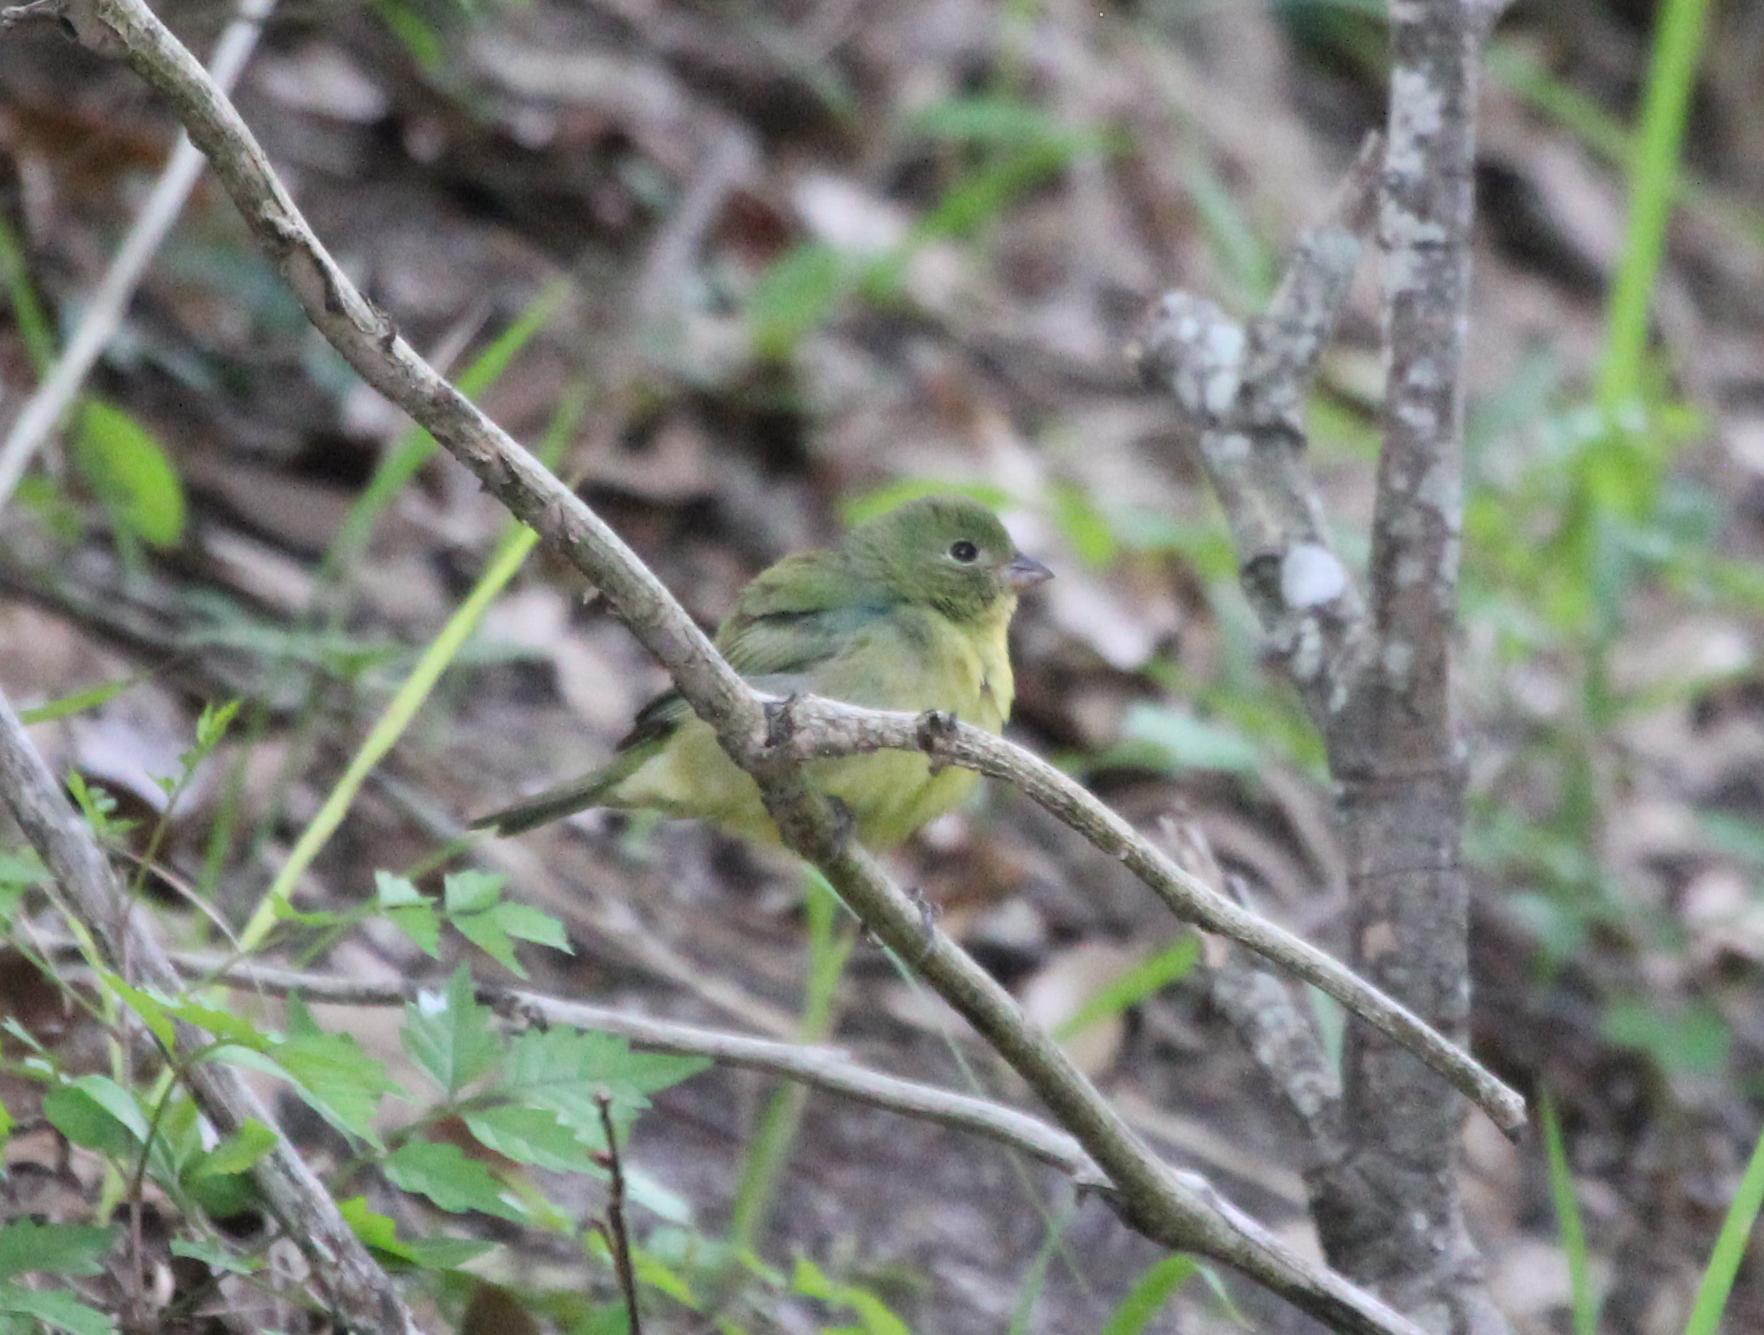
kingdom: Animalia
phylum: Chordata
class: Aves
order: Passeriformes
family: Cardinalidae
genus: Passerina
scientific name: Passerina ciris
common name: Painted bunting
